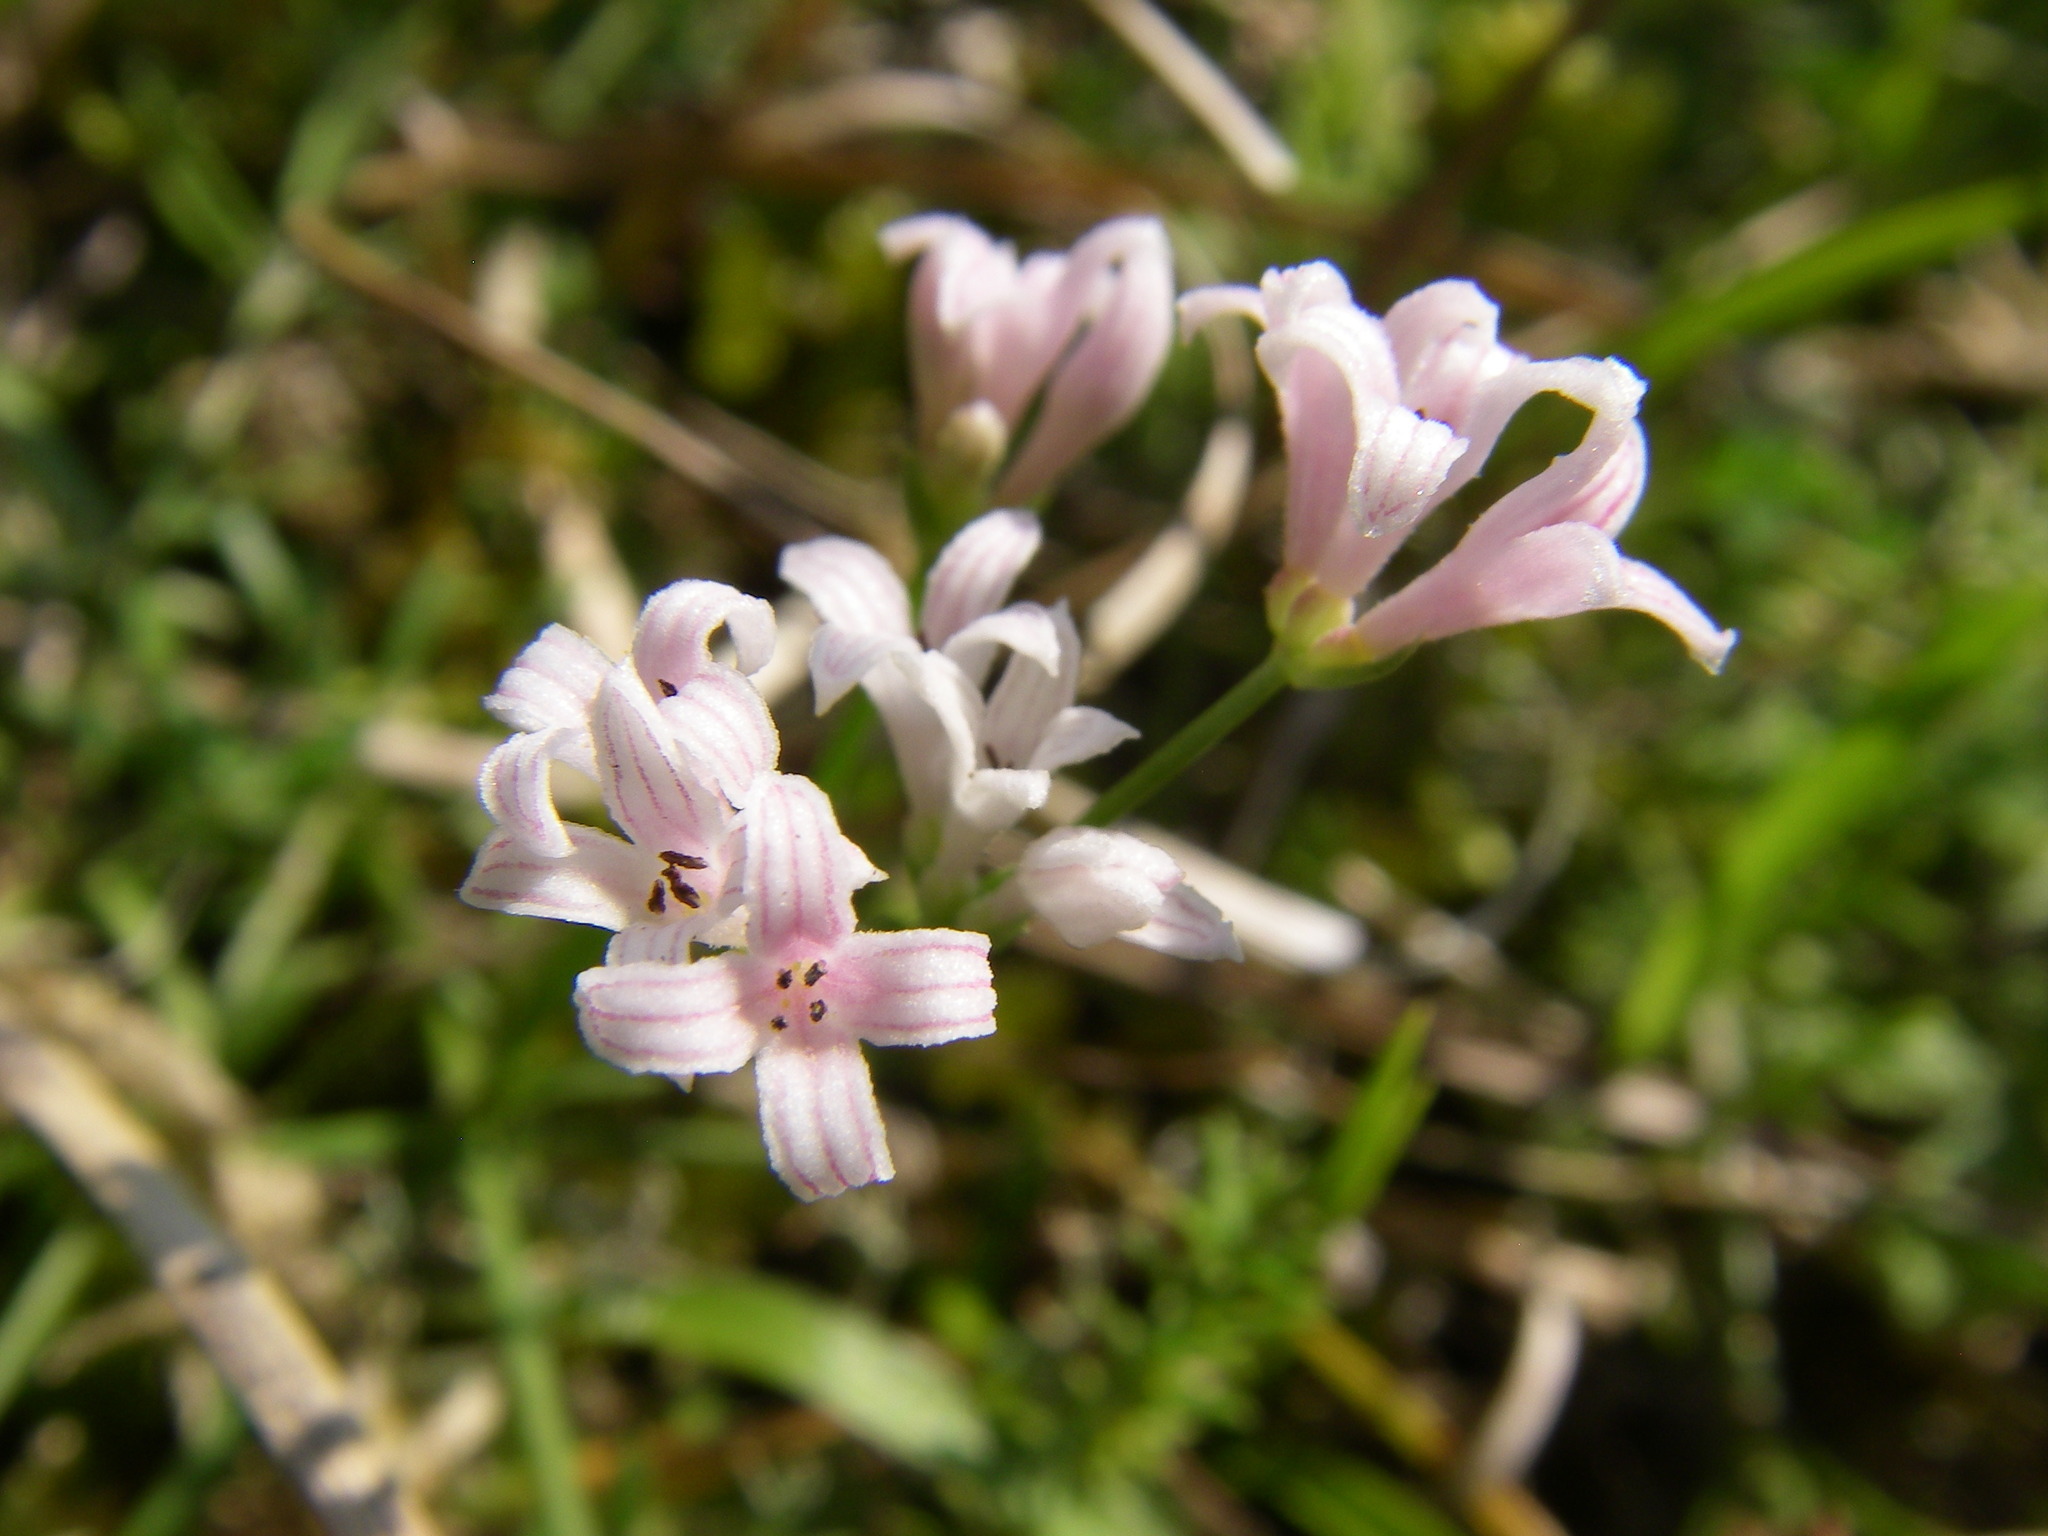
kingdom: Plantae
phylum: Tracheophyta
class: Magnoliopsida
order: Gentianales
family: Rubiaceae
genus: Cynanchica
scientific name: Cynanchica pyrenaica
